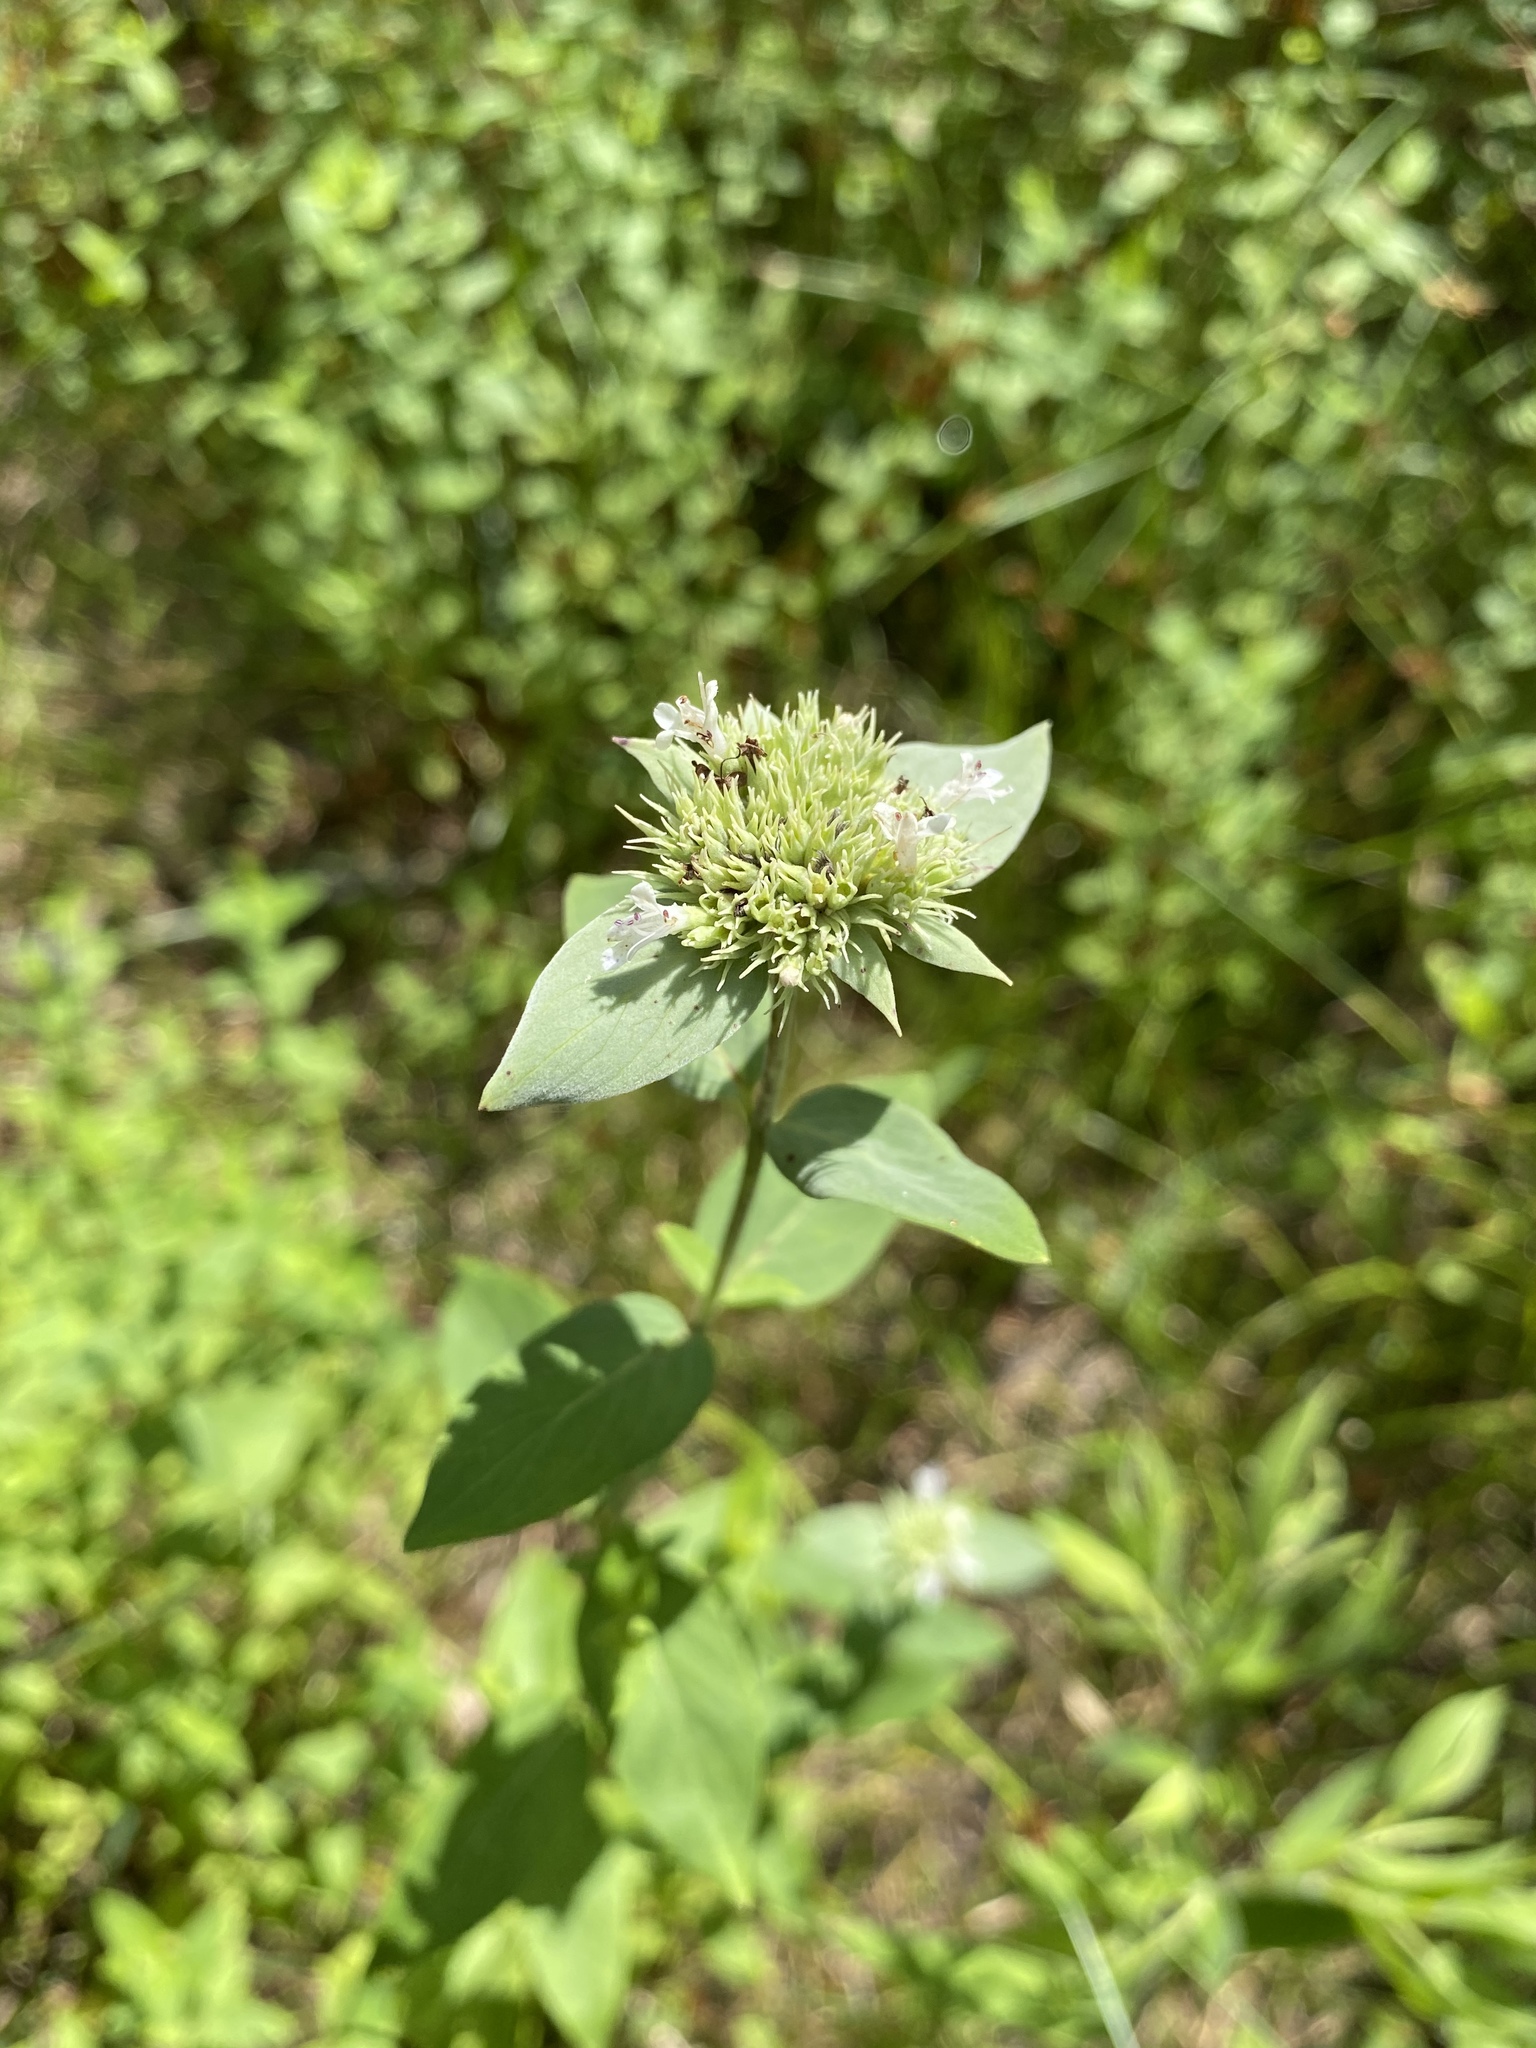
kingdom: Plantae
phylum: Tracheophyta
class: Magnoliopsida
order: Lamiales
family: Lamiaceae
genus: Pycnanthemum
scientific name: Pycnanthemum setosum
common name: Awned mountain-mint
